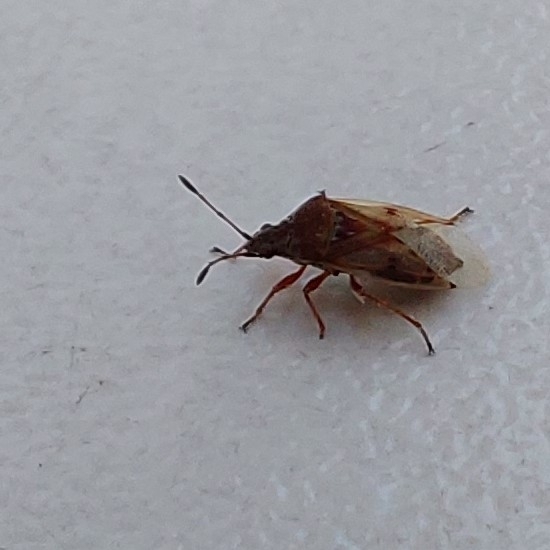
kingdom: Animalia
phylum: Arthropoda
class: Insecta
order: Hemiptera
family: Lygaeidae
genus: Kleidocerys
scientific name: Kleidocerys resedae
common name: Birch catkin bug
